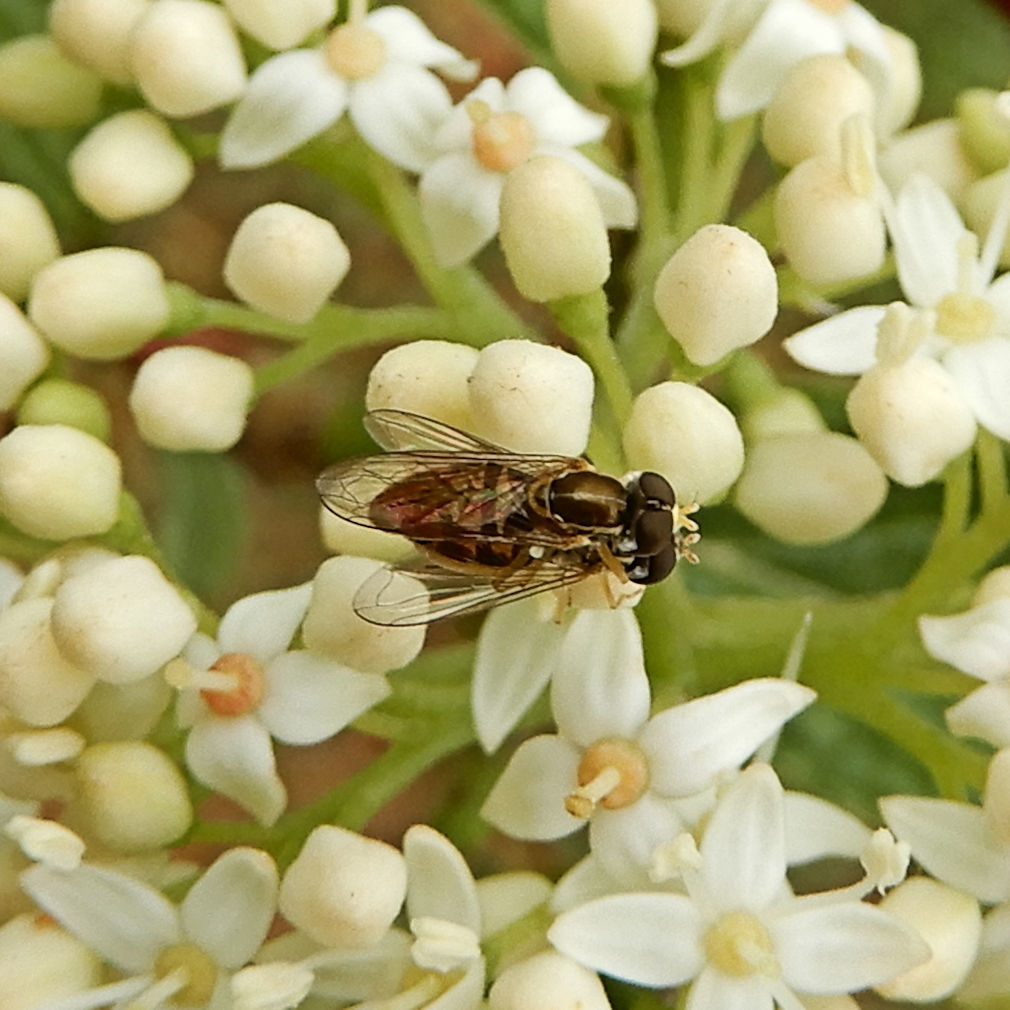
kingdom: Animalia
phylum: Arthropoda
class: Insecta
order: Diptera
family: Syrphidae
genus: Toxomerus
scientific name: Toxomerus marginatus
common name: Syrphid fly
